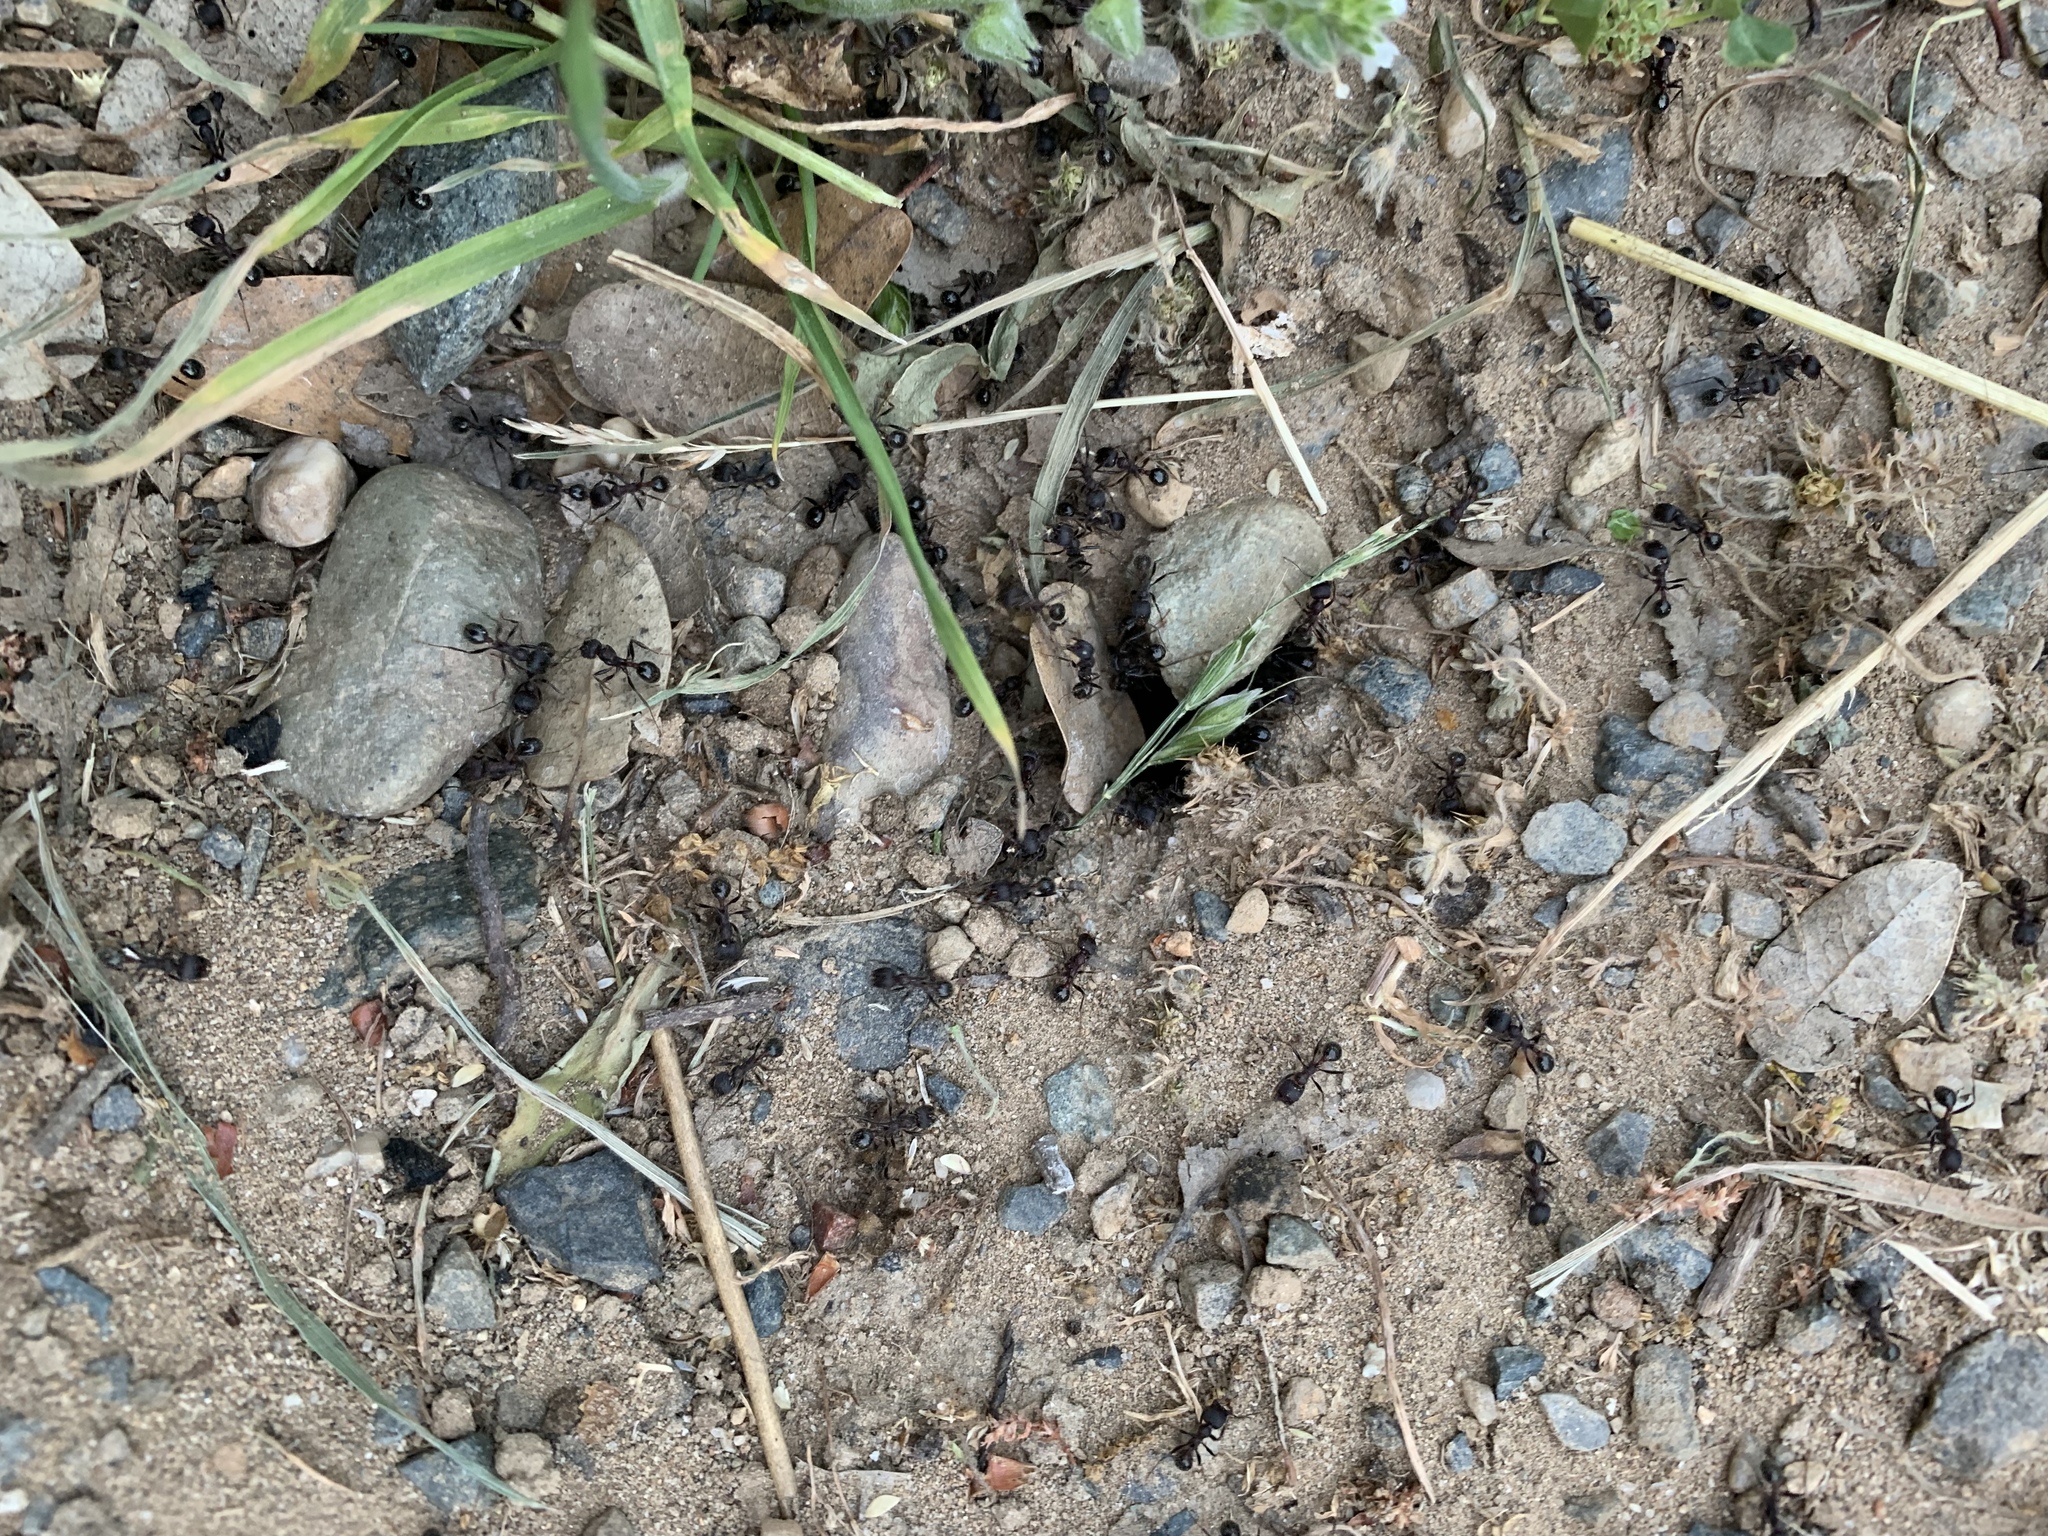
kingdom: Animalia
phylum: Arthropoda
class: Insecta
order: Hymenoptera
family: Formicidae
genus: Veromessor
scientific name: Veromessor andrei
